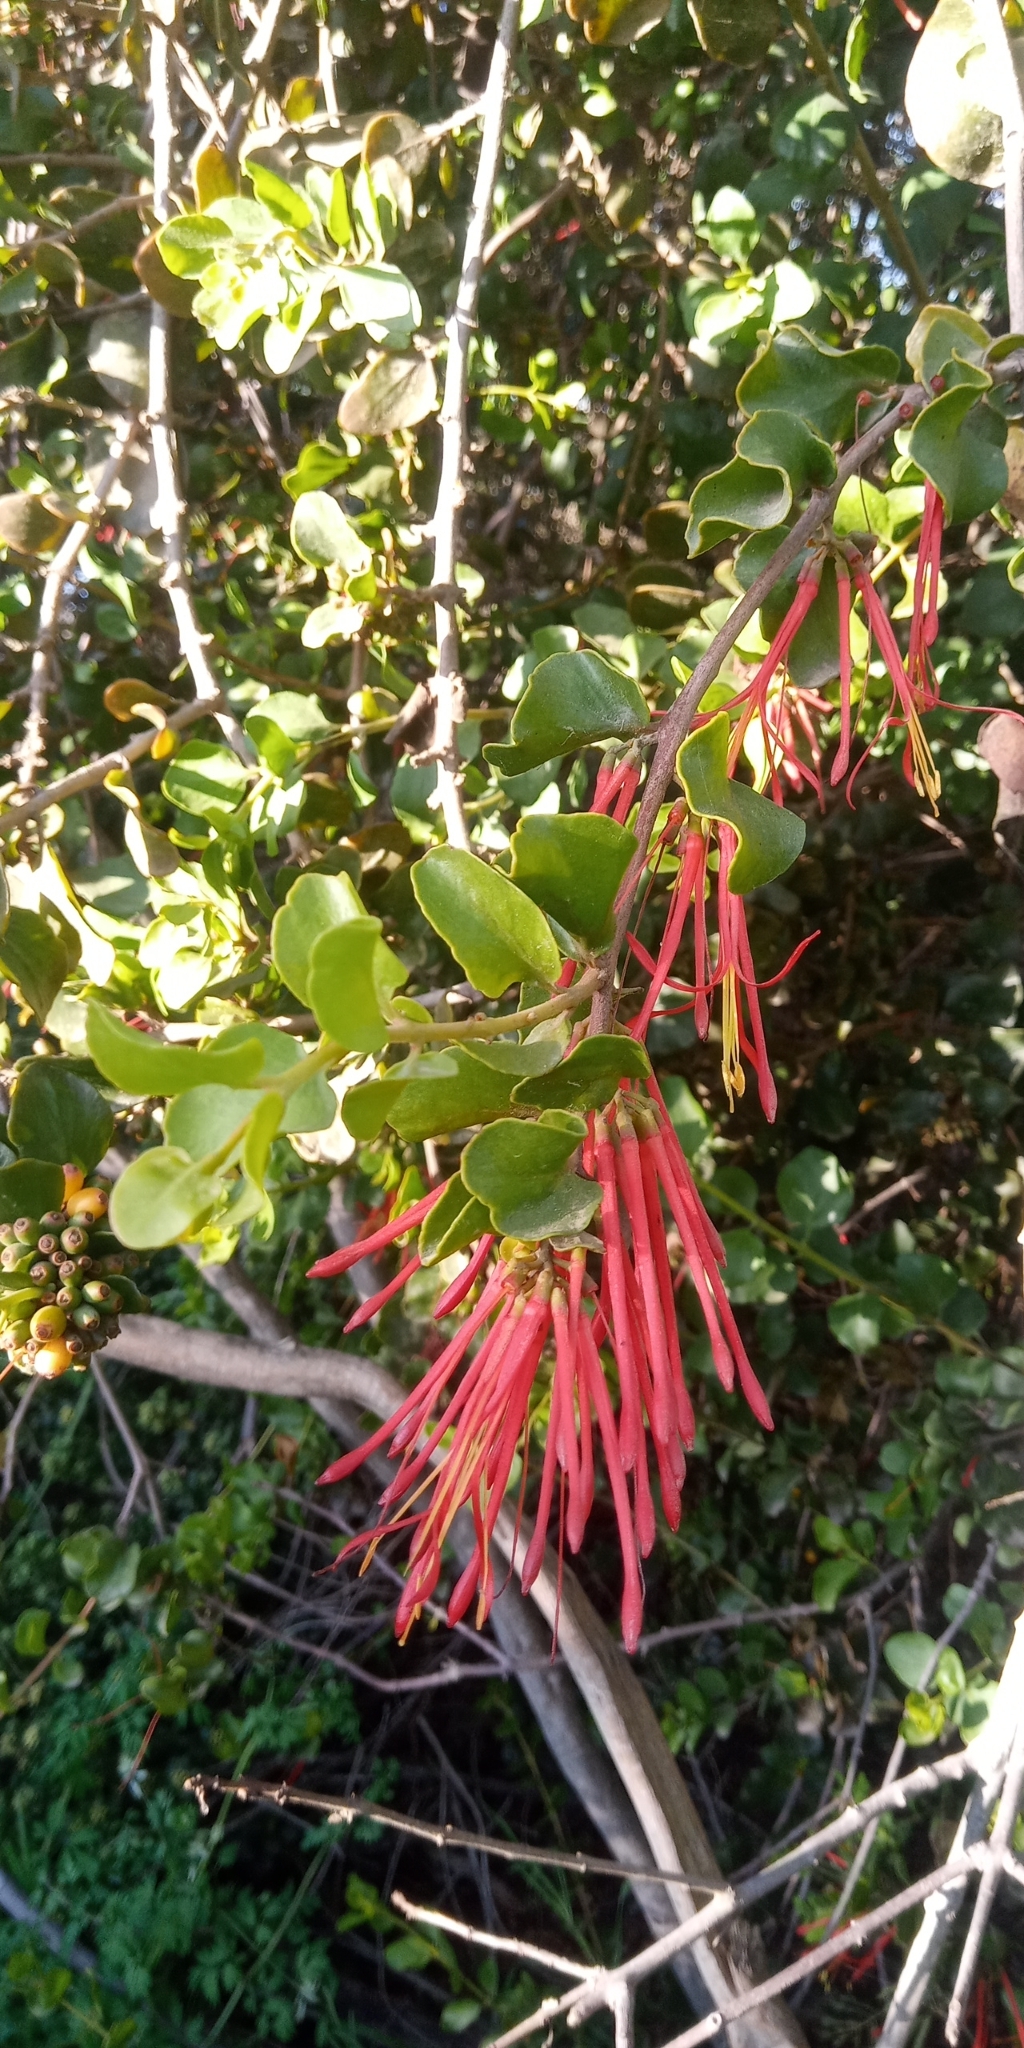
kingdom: Plantae
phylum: Tracheophyta
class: Magnoliopsida
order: Santalales
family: Loranthaceae
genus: Tristerix
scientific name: Tristerix corymbosus
